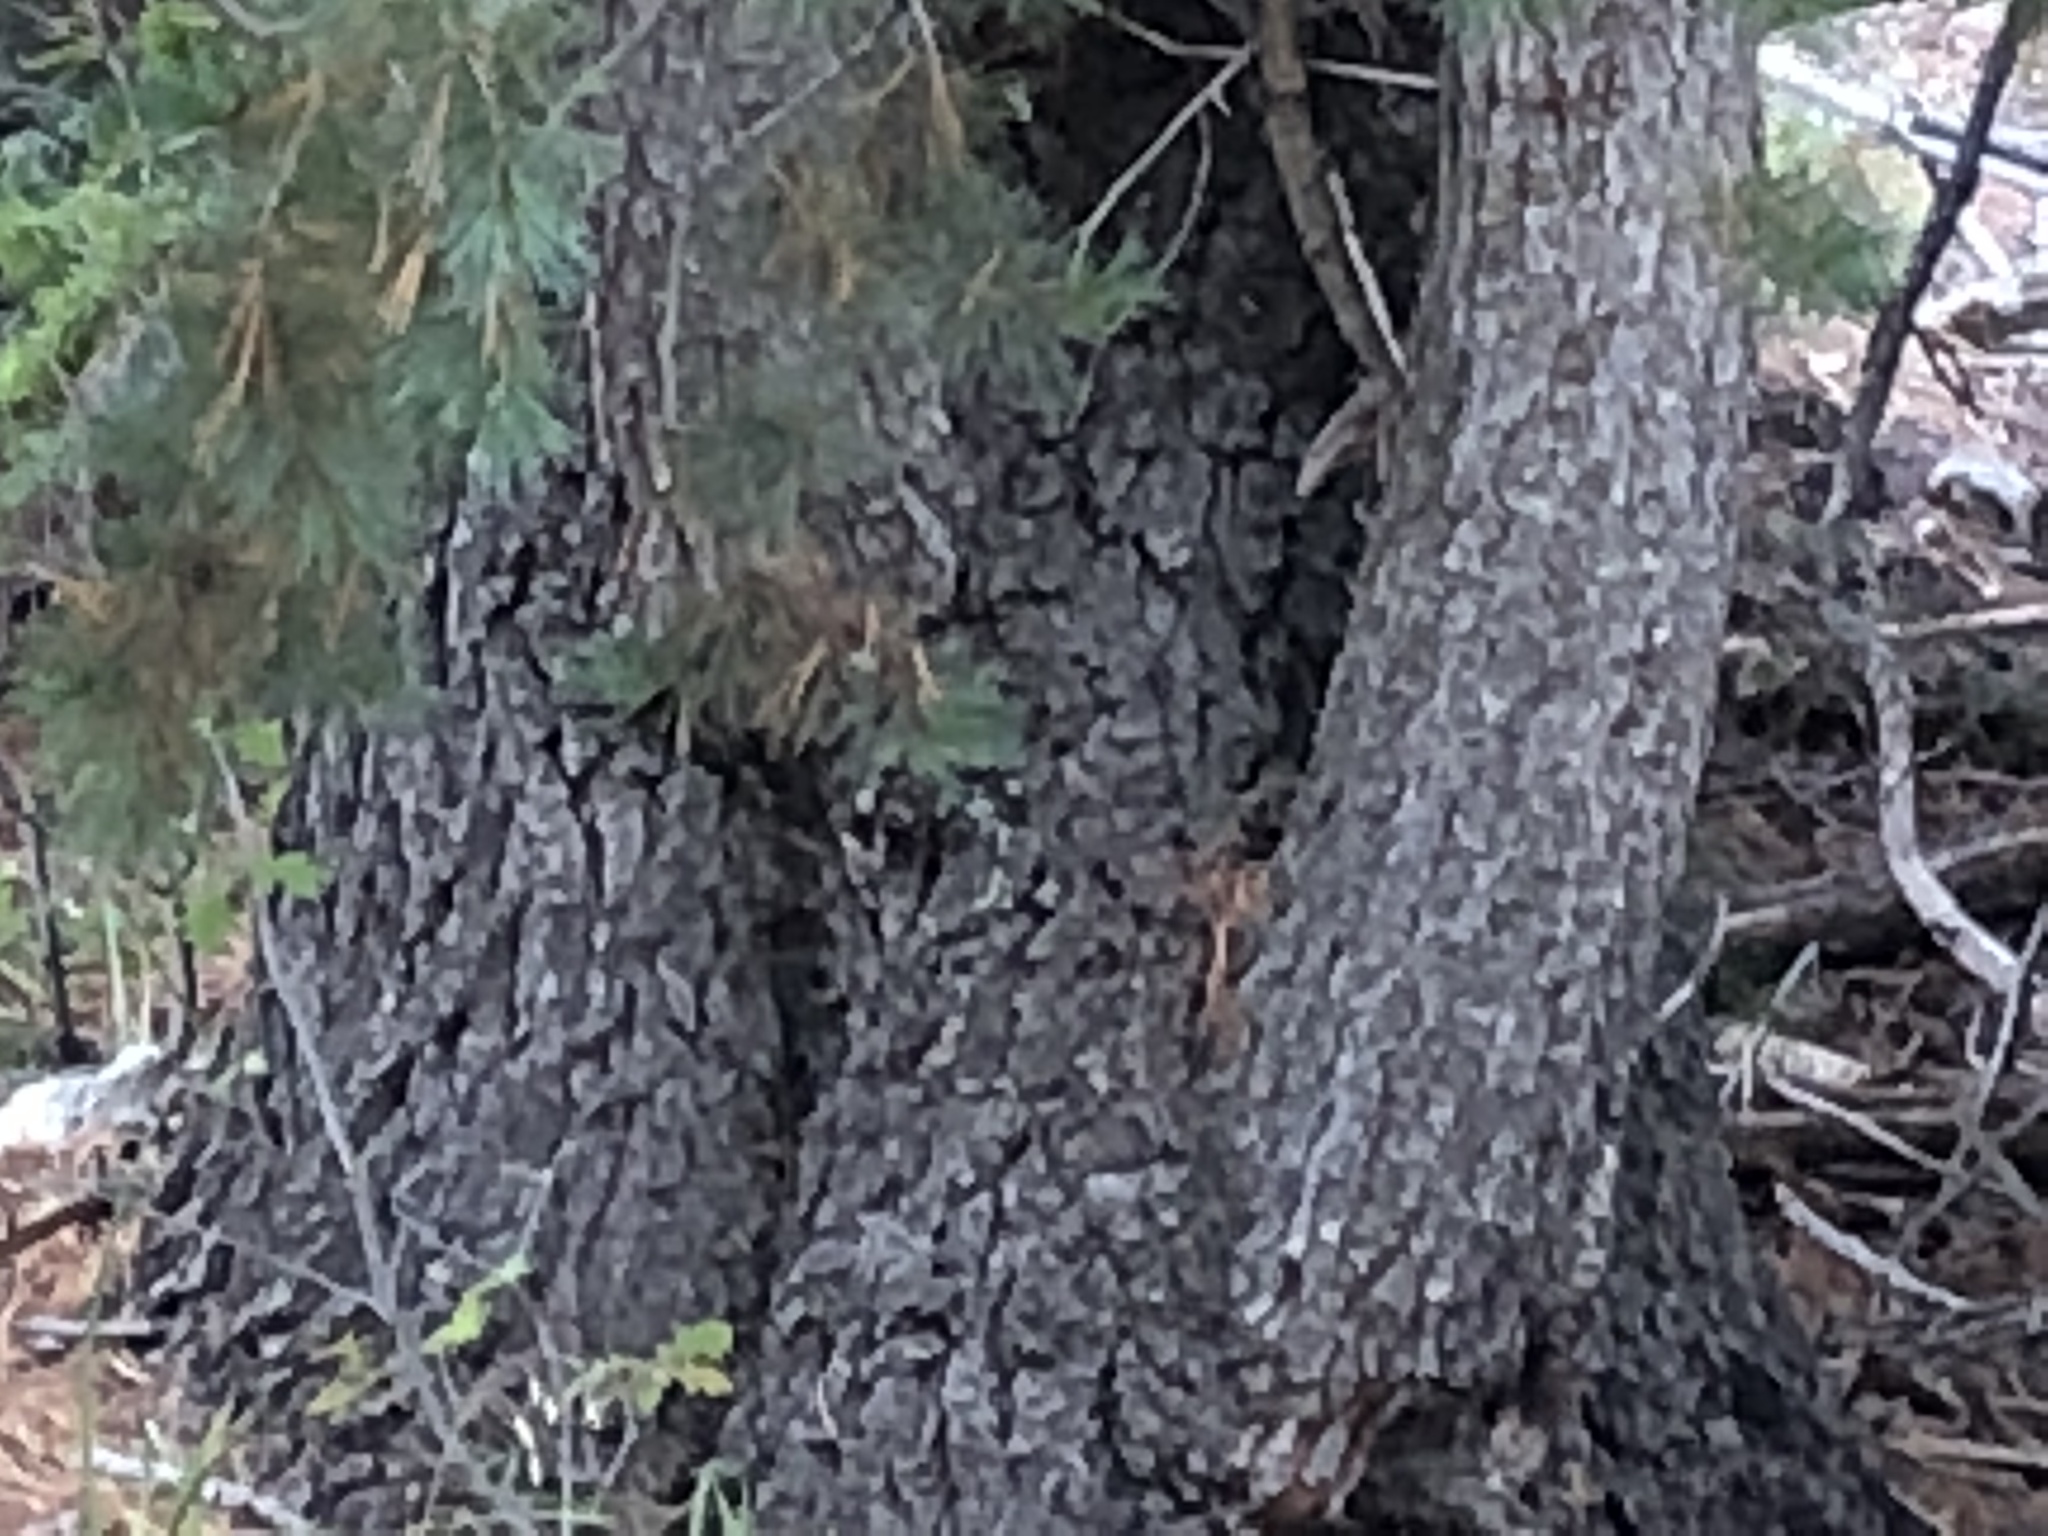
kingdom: Plantae
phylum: Tracheophyta
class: Pinopsida
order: Pinales
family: Pinaceae
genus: Pinus
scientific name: Pinus strobiformis
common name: Southwestern white pine
